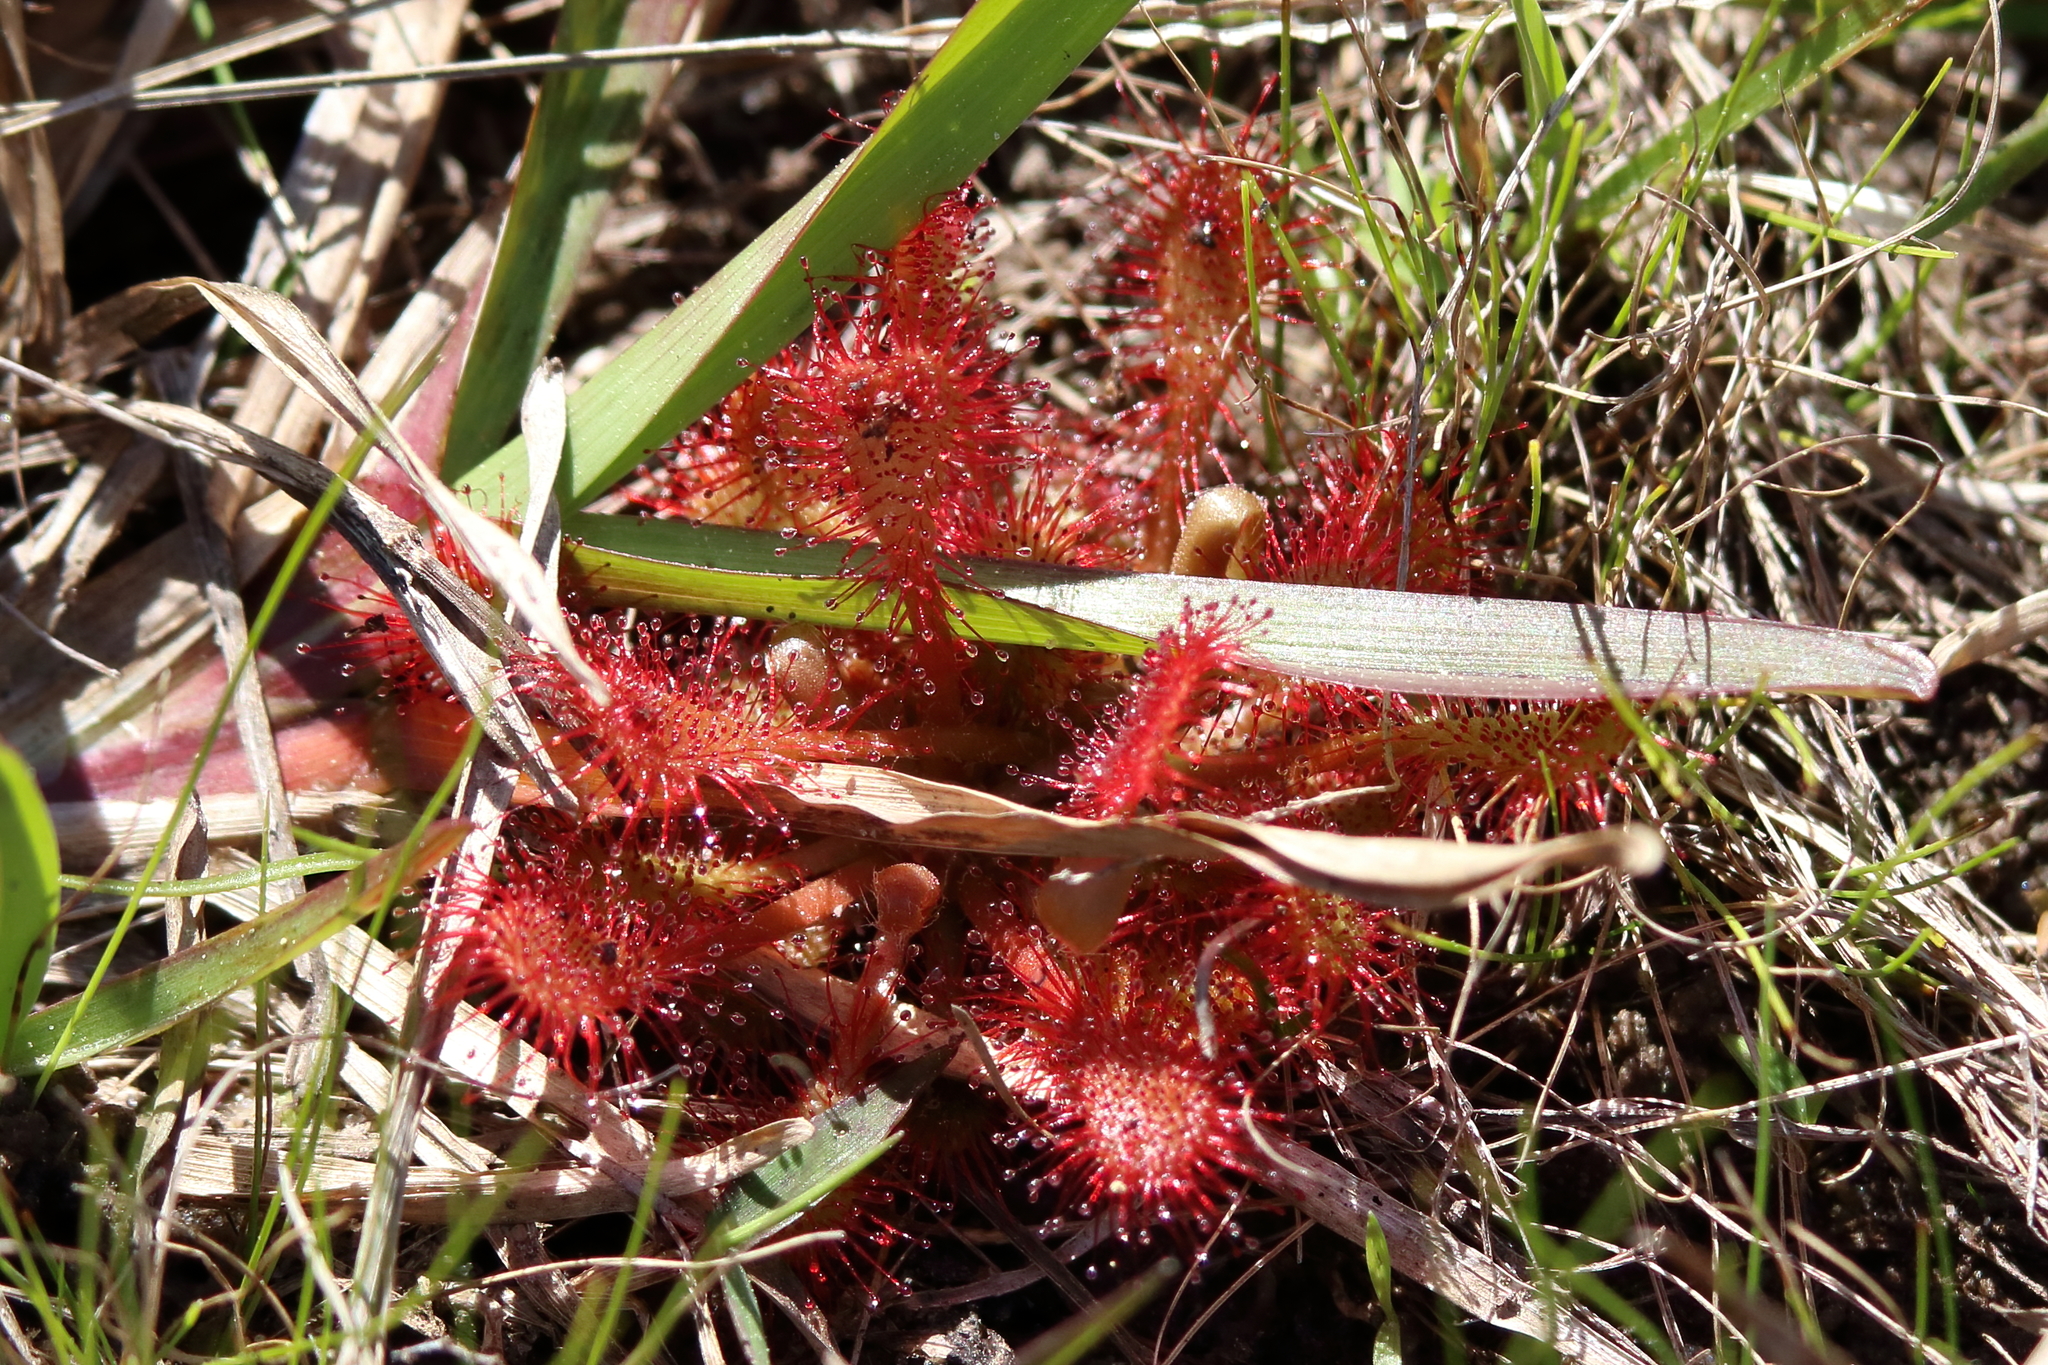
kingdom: Plantae
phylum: Tracheophyta
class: Magnoliopsida
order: Caryophyllales
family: Droseraceae
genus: Drosera
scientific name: Drosera capillaris
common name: Pink sundew
